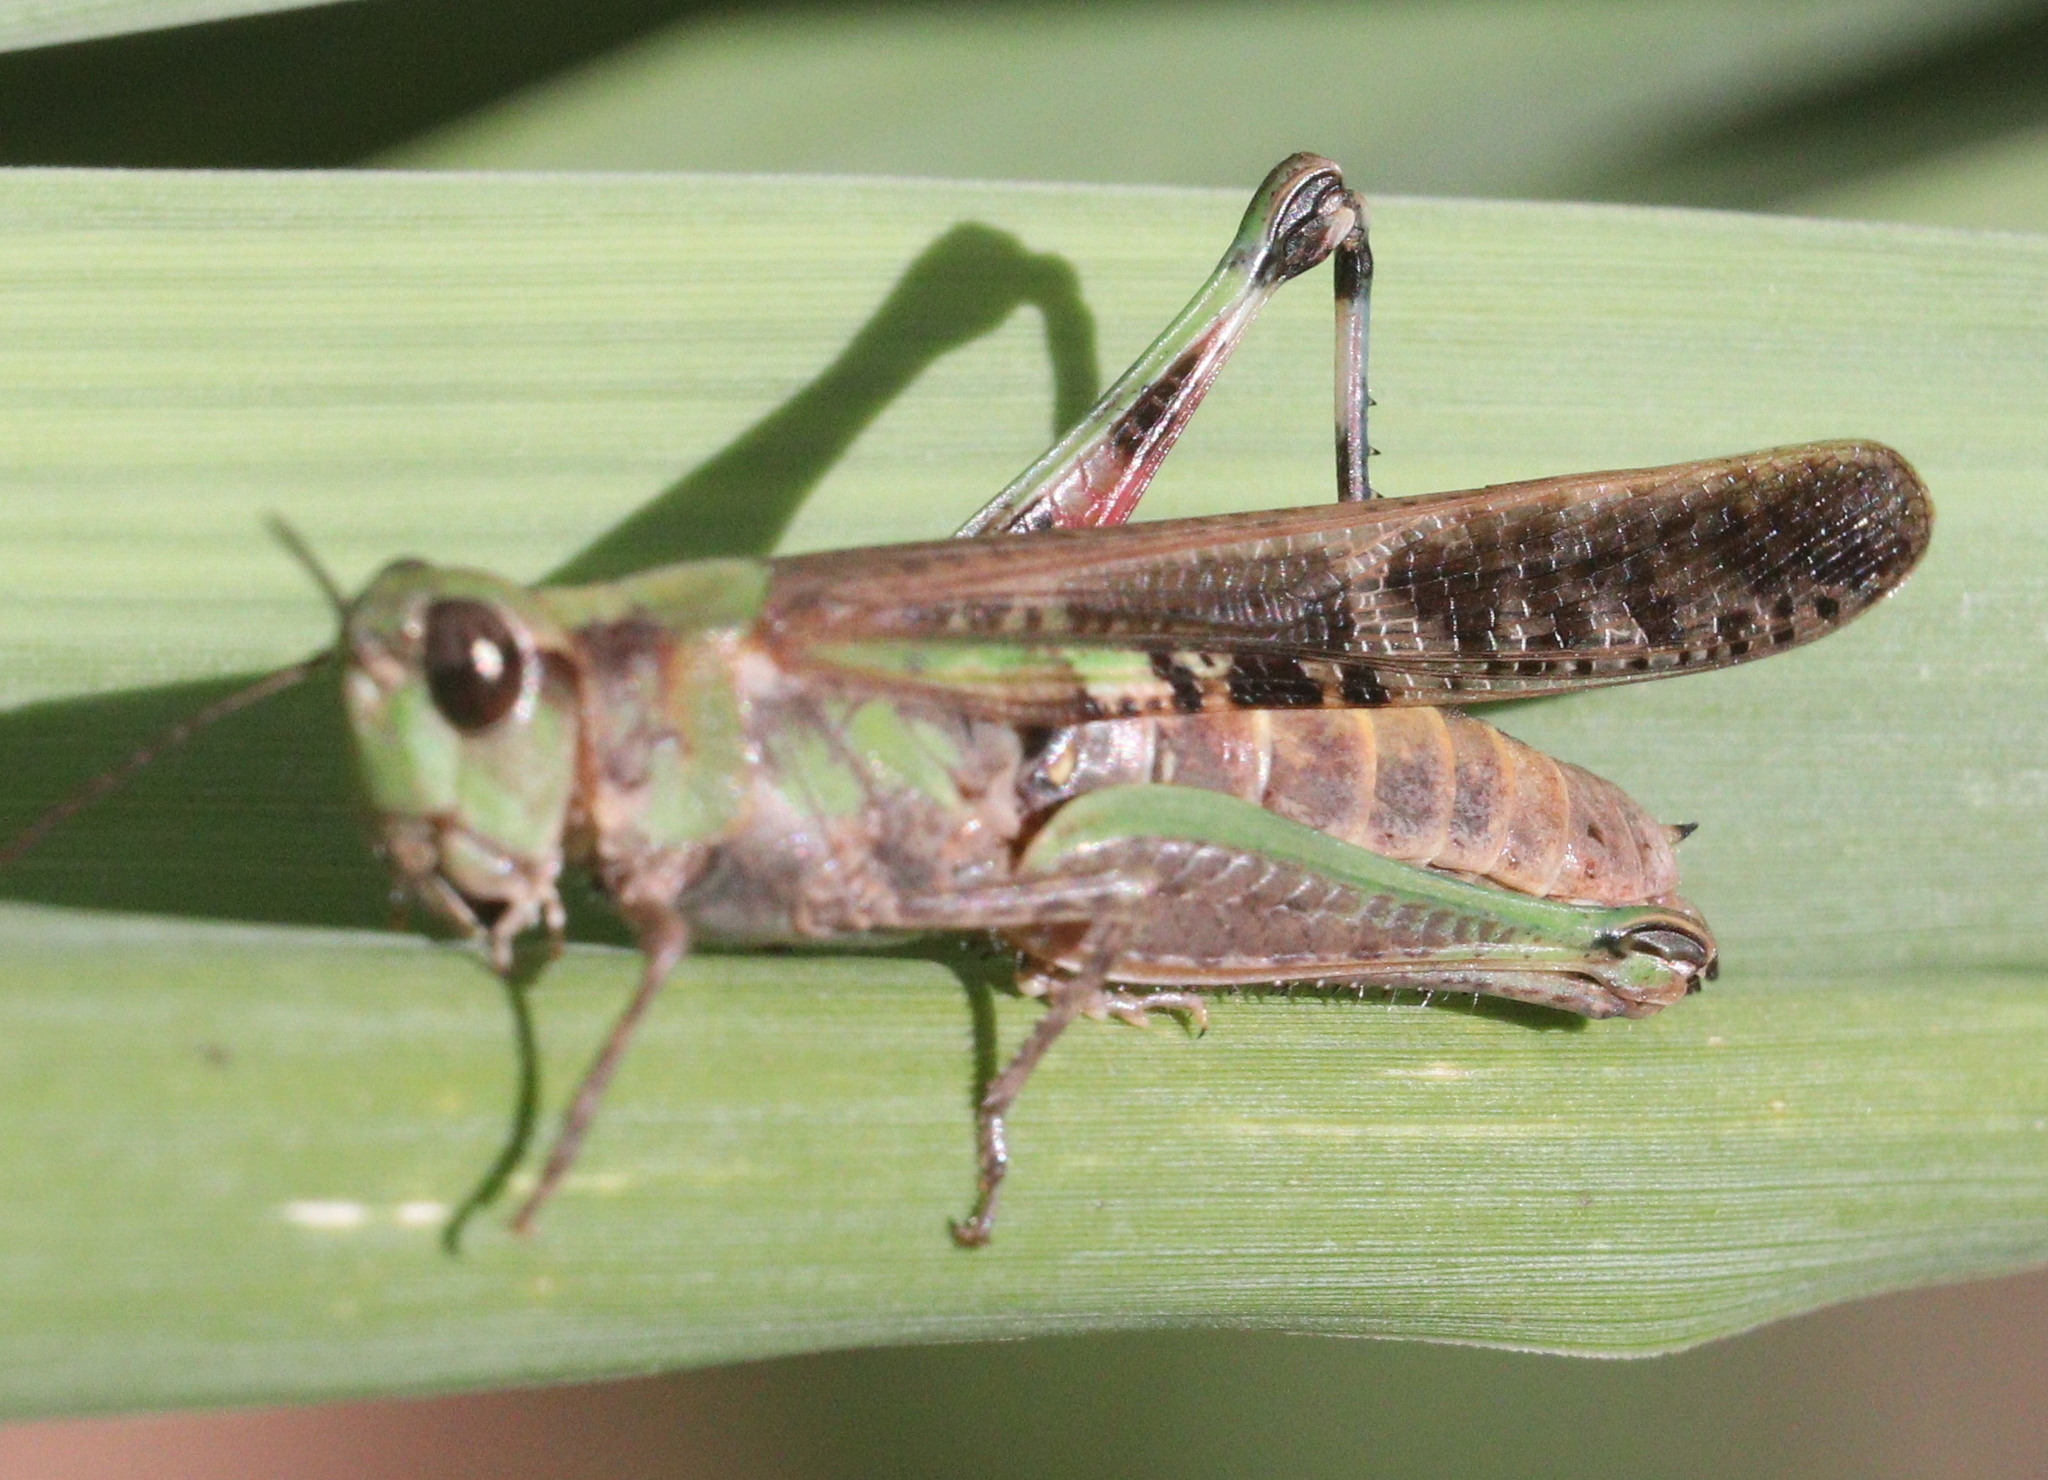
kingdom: Animalia
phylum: Arthropoda
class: Insecta
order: Orthoptera
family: Acrididae
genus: Aiolopus
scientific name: Aiolopus puissanti
